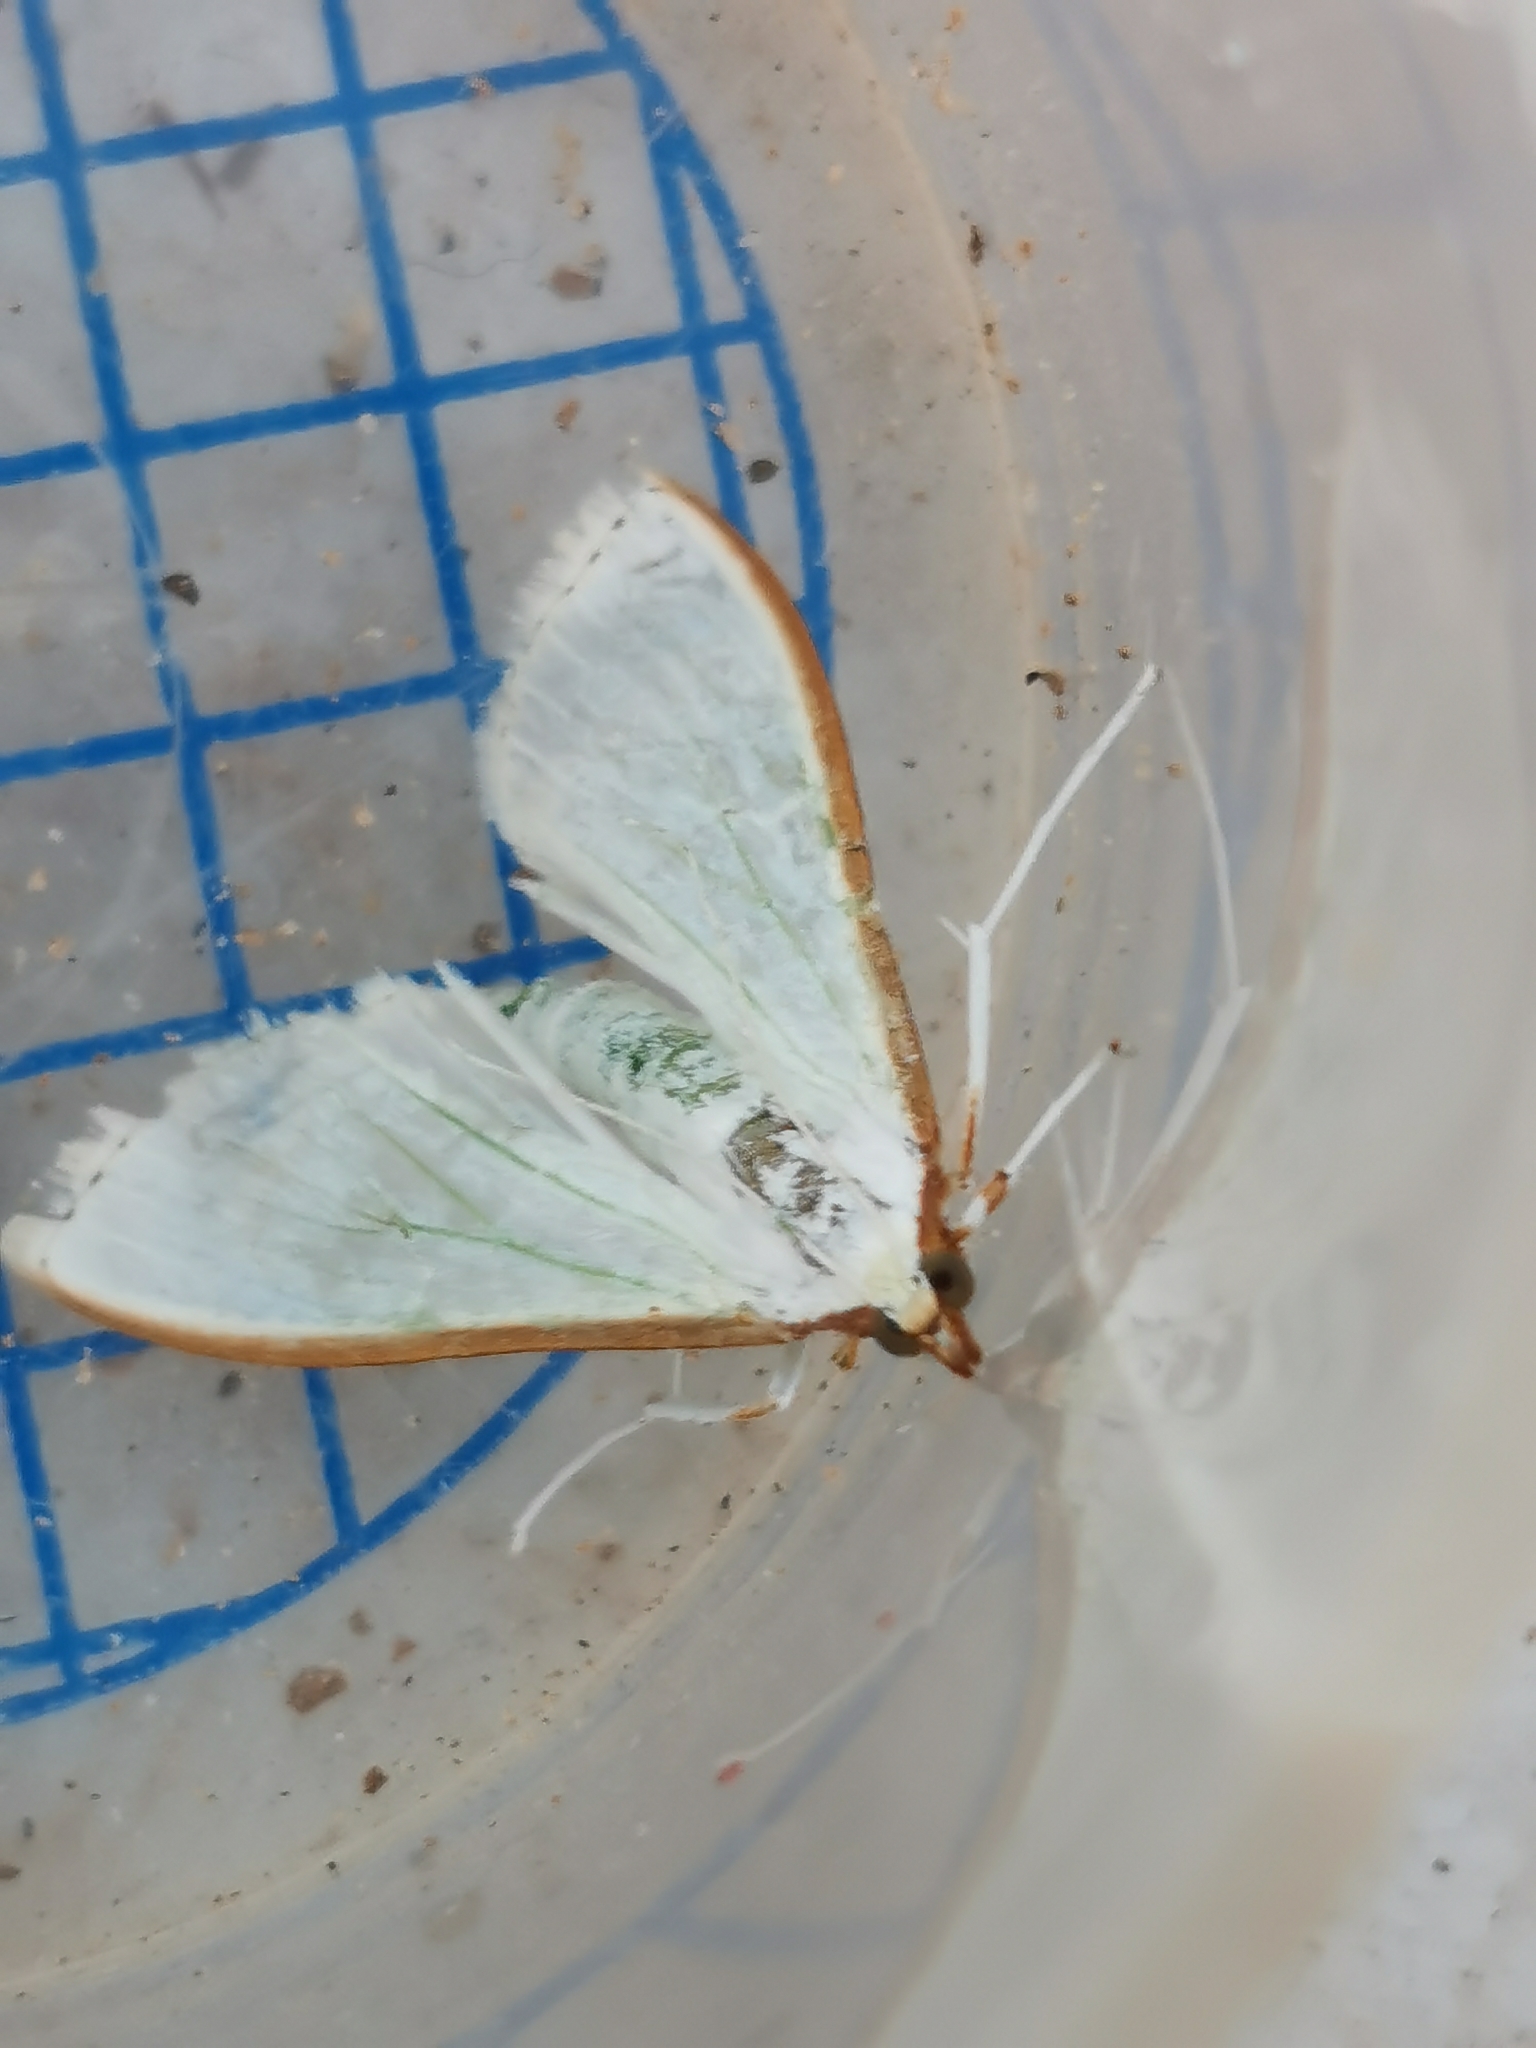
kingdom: Animalia
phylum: Arthropoda
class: Insecta
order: Lepidoptera
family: Crambidae
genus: Palpita
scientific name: Palpita vitrealis
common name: Olive-tree pearl
